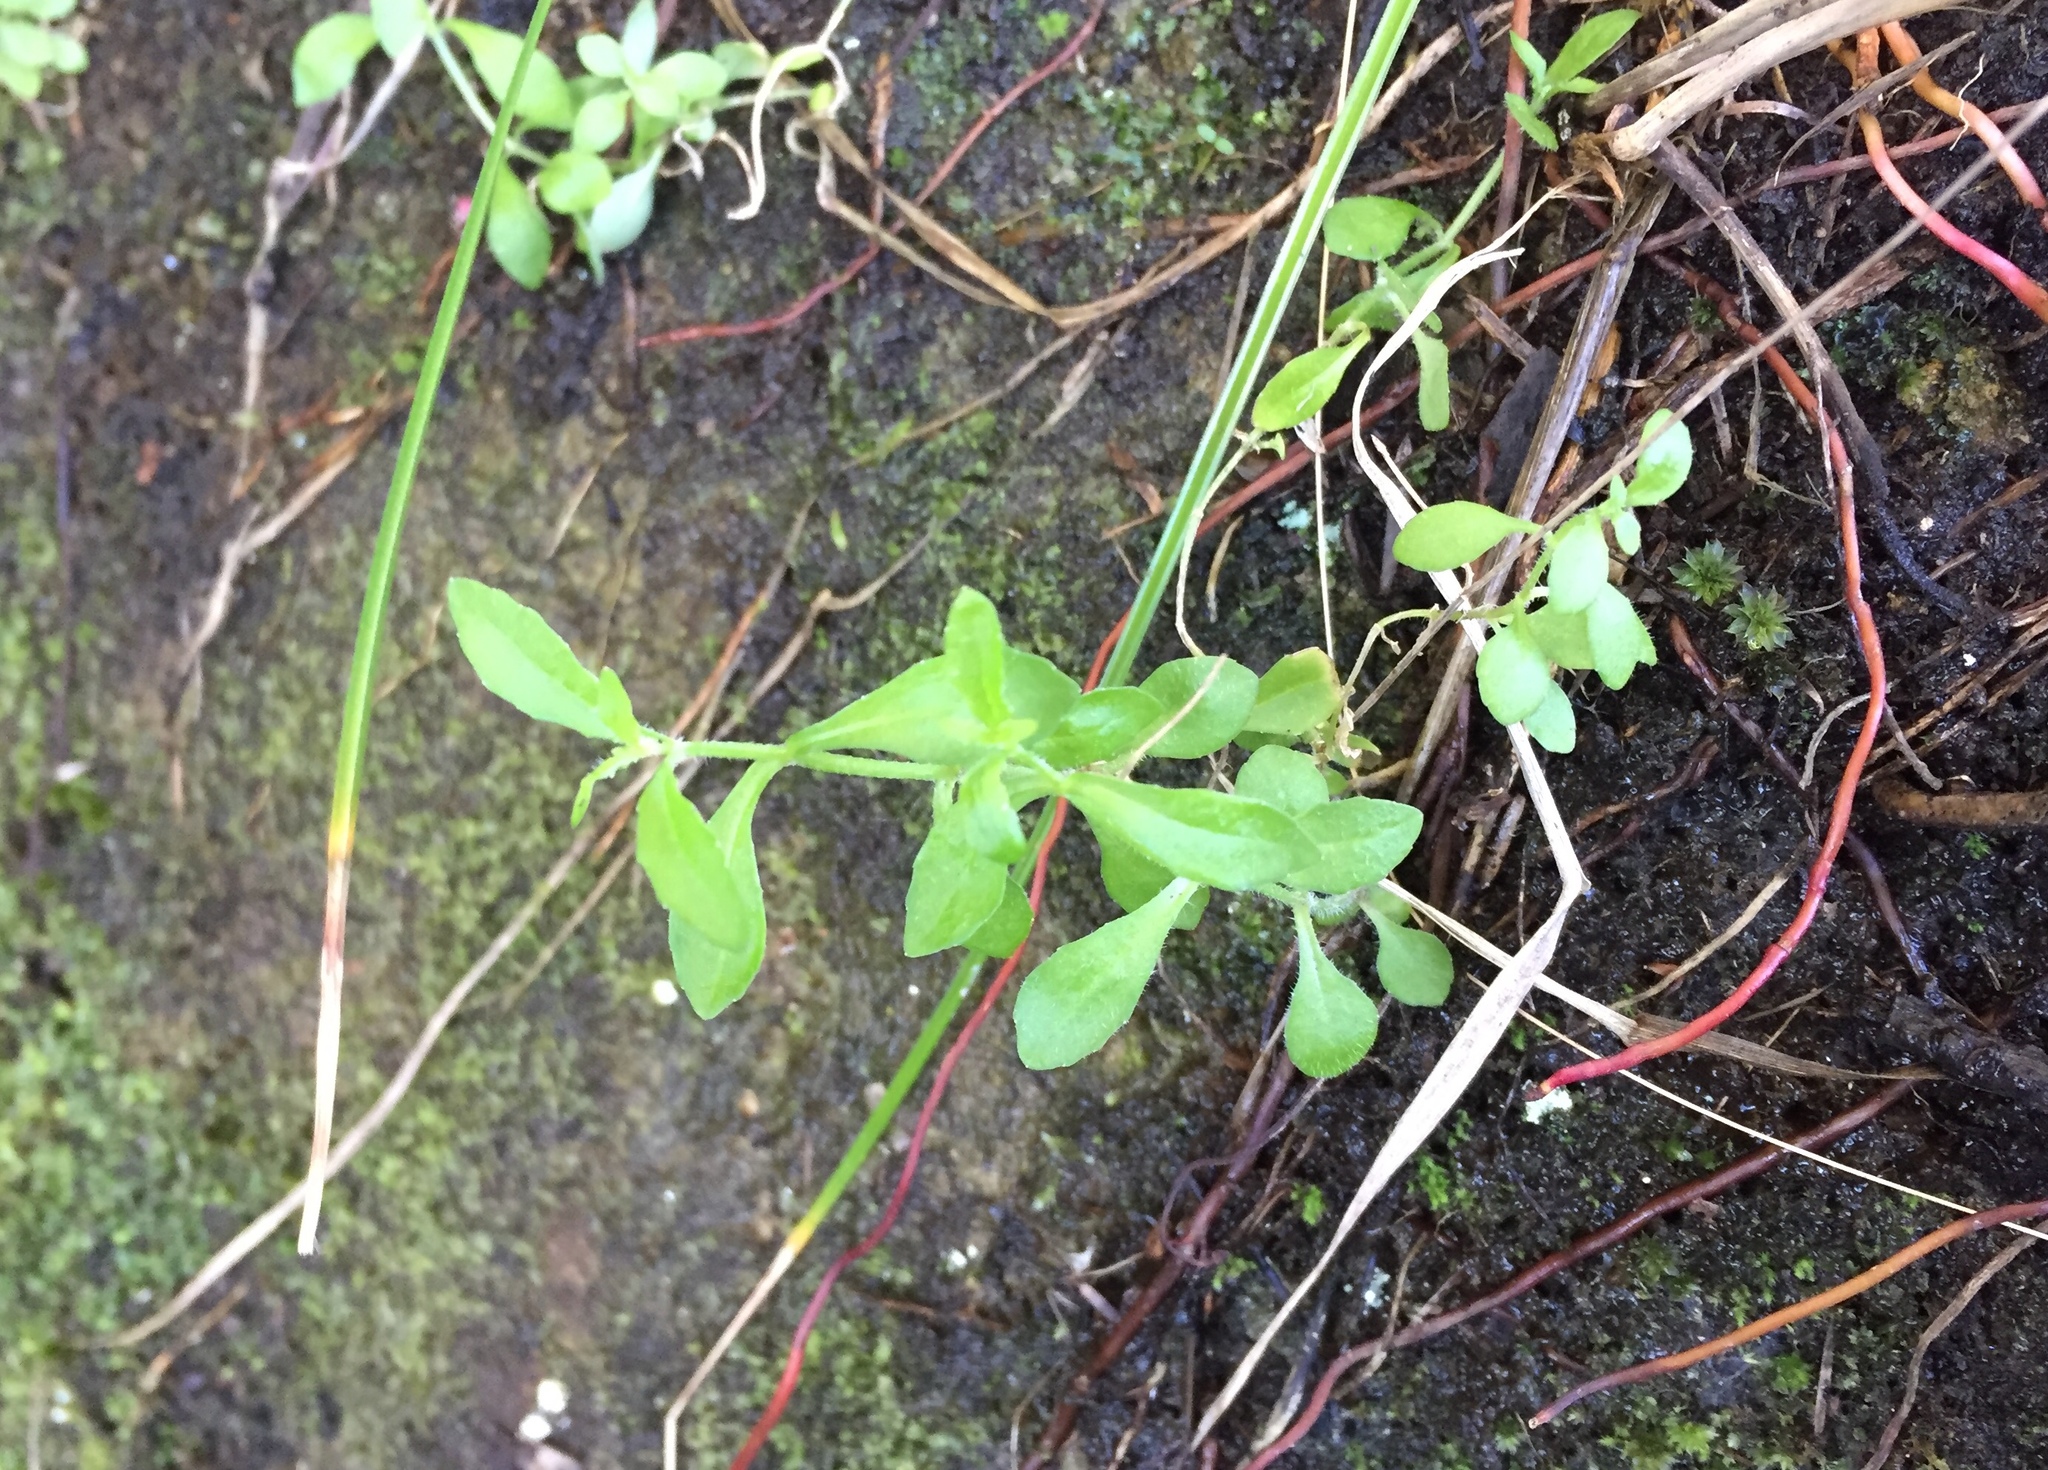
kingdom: Plantae
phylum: Tracheophyta
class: Magnoliopsida
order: Asterales
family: Campanulaceae
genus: Lobelia
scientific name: Lobelia anceps
